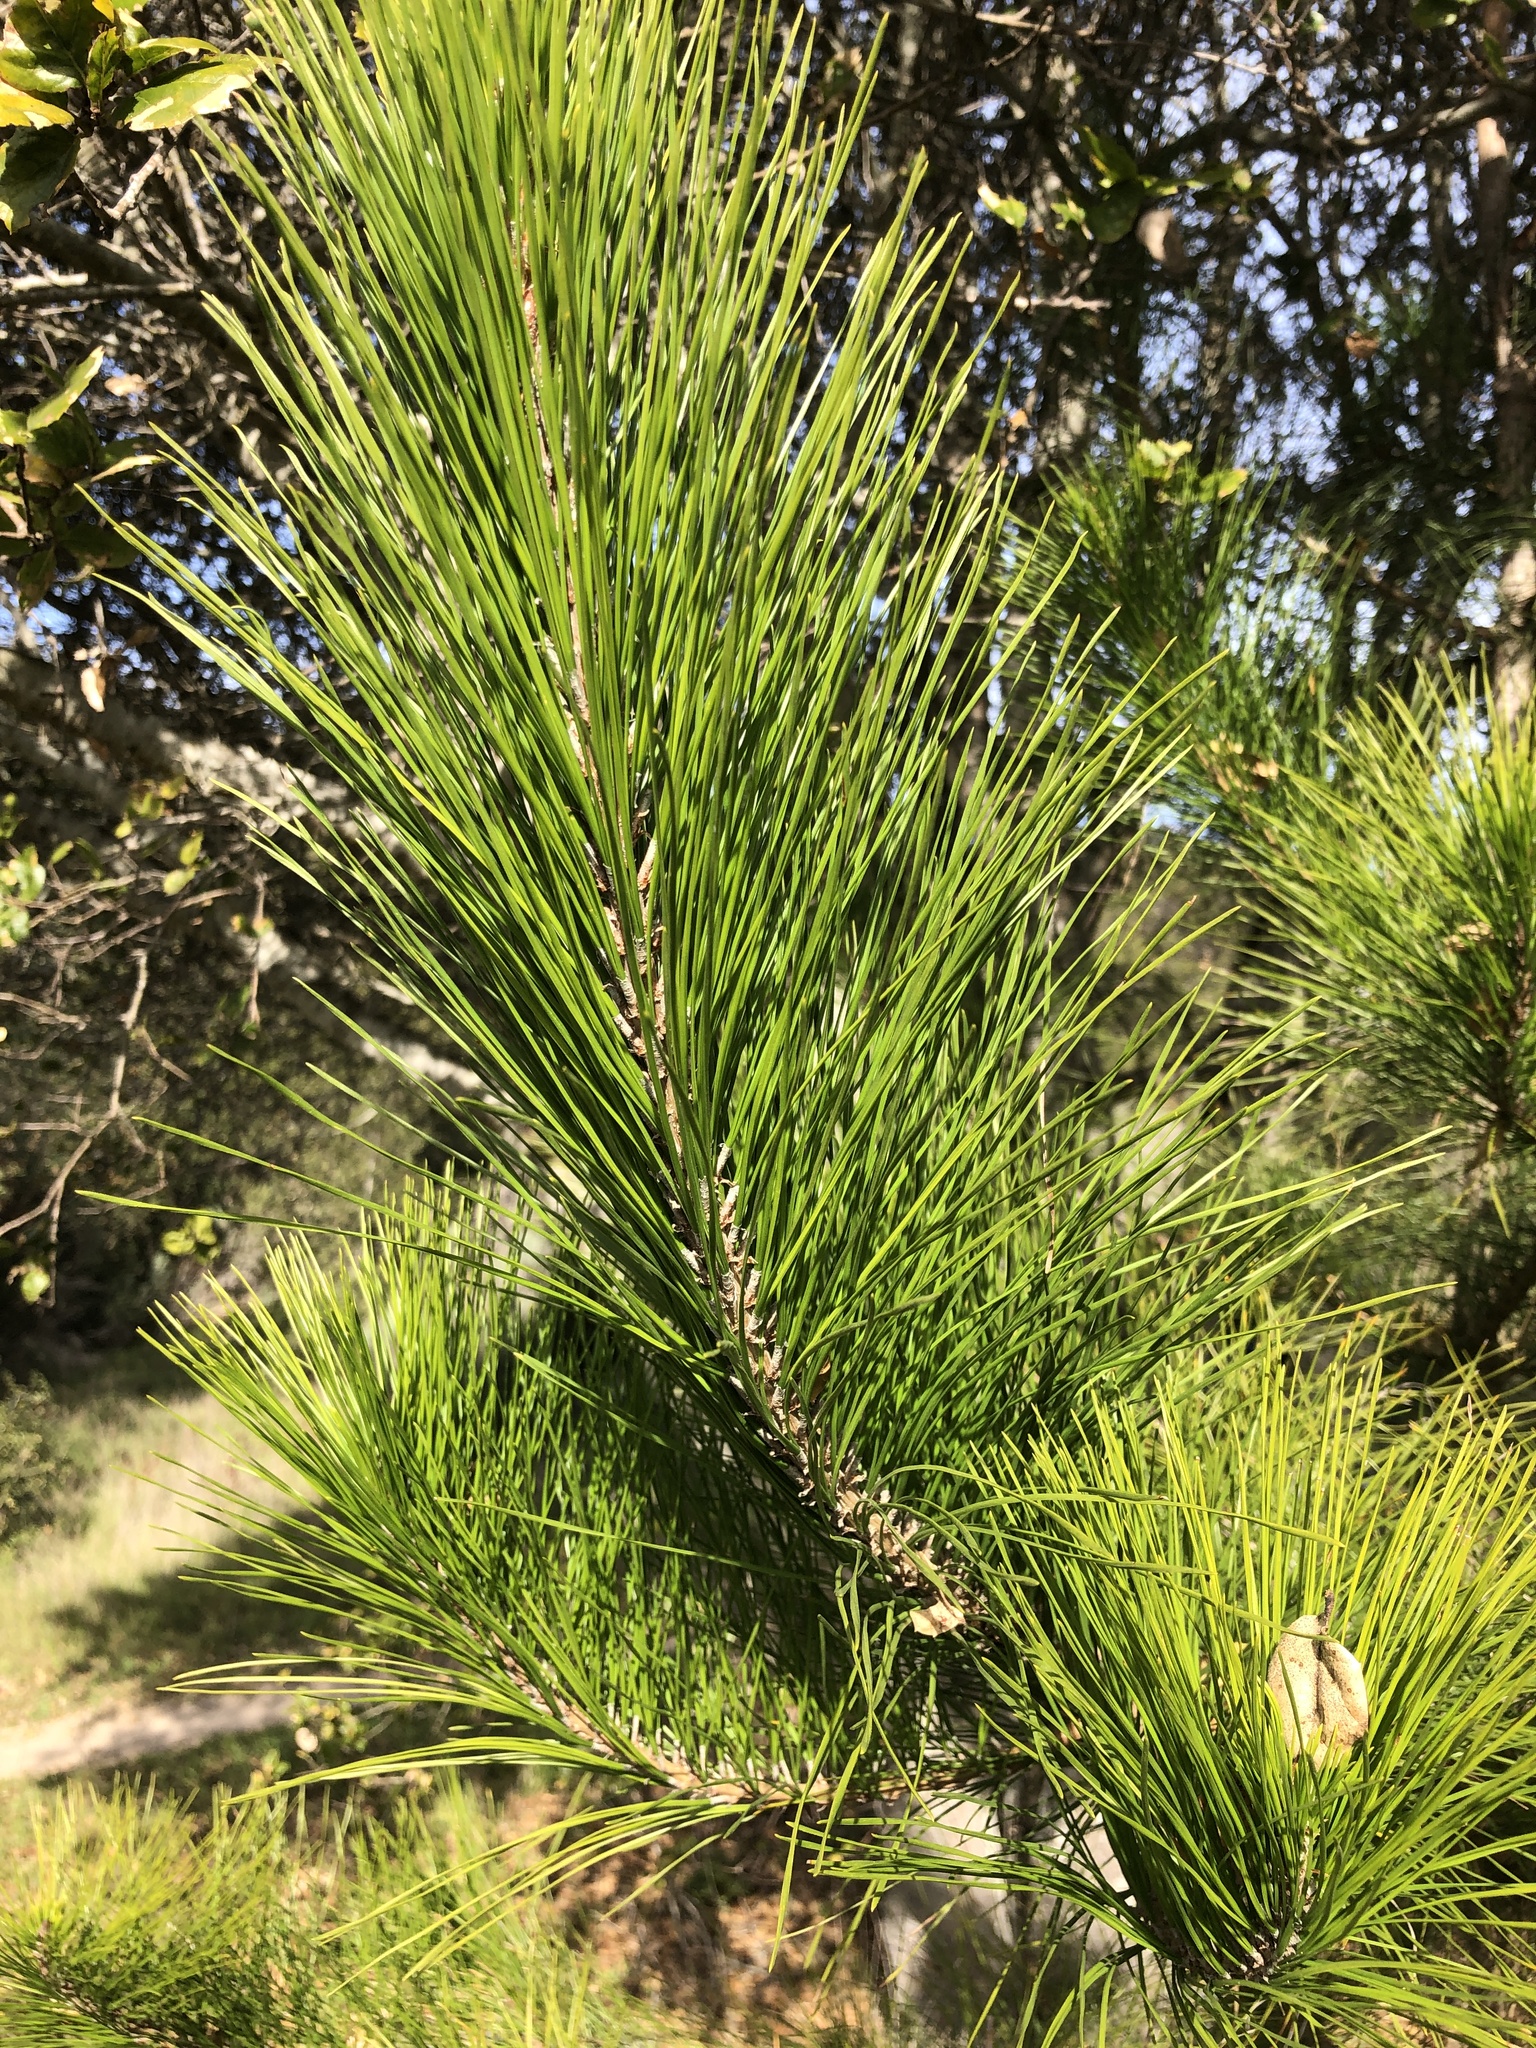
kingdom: Plantae
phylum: Tracheophyta
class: Pinopsida
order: Pinales
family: Pinaceae
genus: Pinus
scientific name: Pinus radiata
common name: Monterey pine
